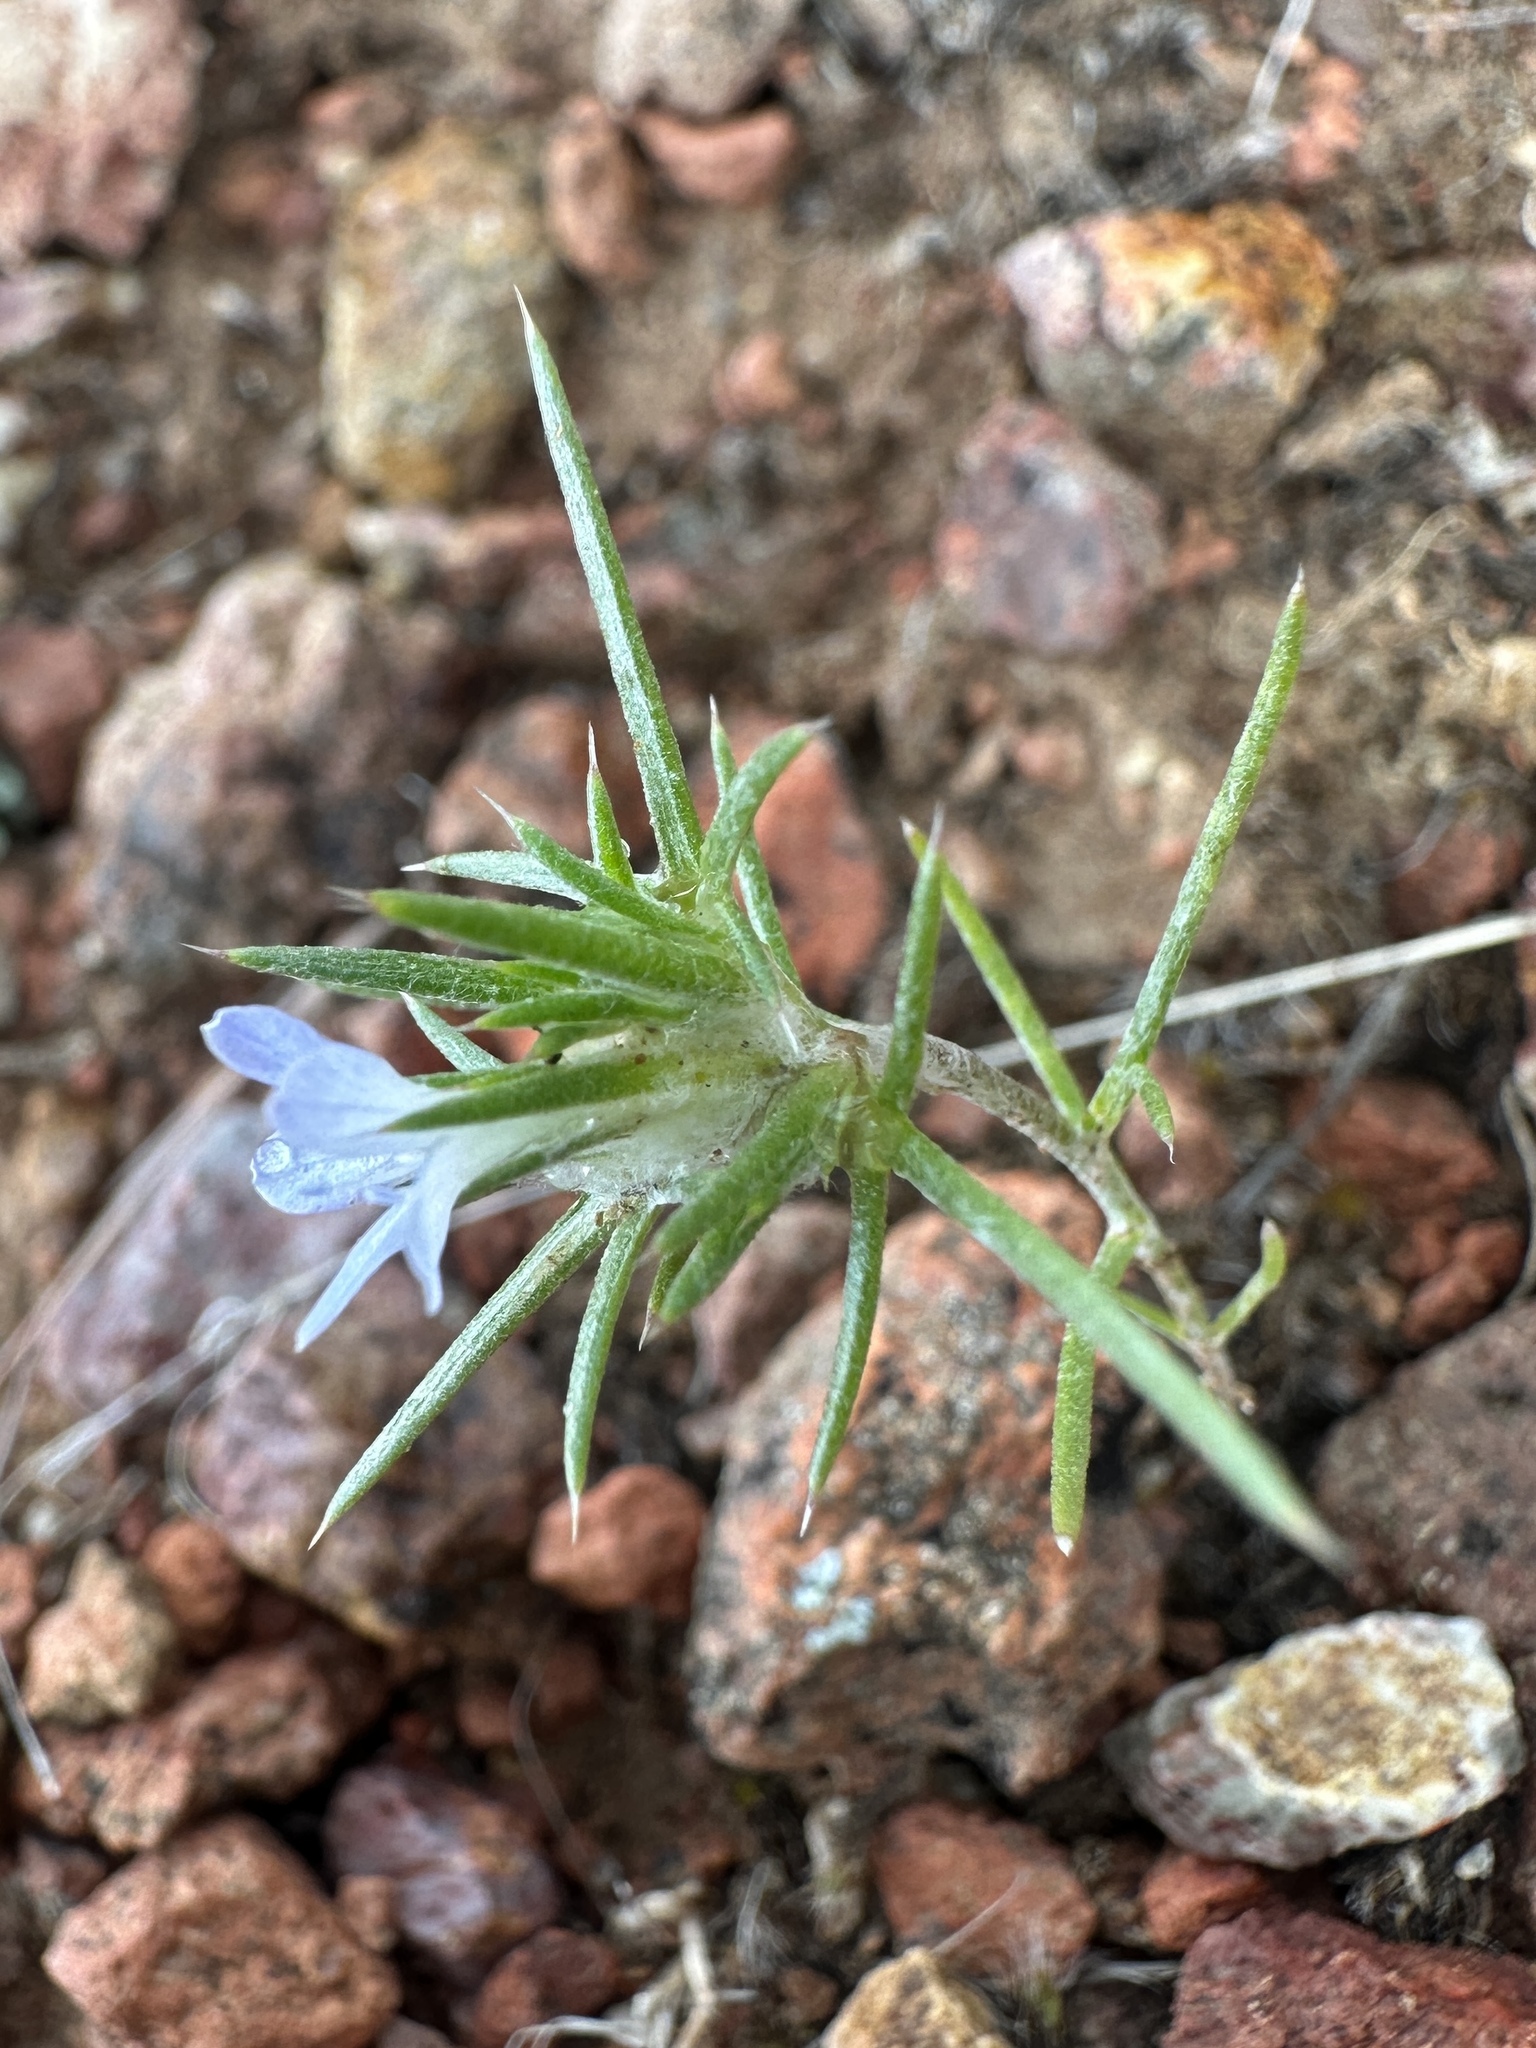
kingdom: Plantae
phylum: Tracheophyta
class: Magnoliopsida
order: Ericales
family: Polemoniaceae
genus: Eriastrum
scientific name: Eriastrum wilcoxii
